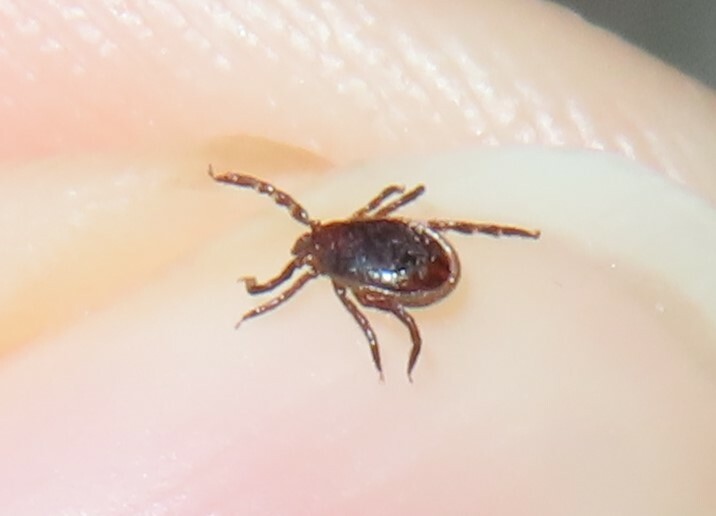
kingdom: Animalia
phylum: Arthropoda
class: Arachnida
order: Ixodida
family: Ixodidae
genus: Ixodes
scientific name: Ixodes scapularis
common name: Black legged tick
